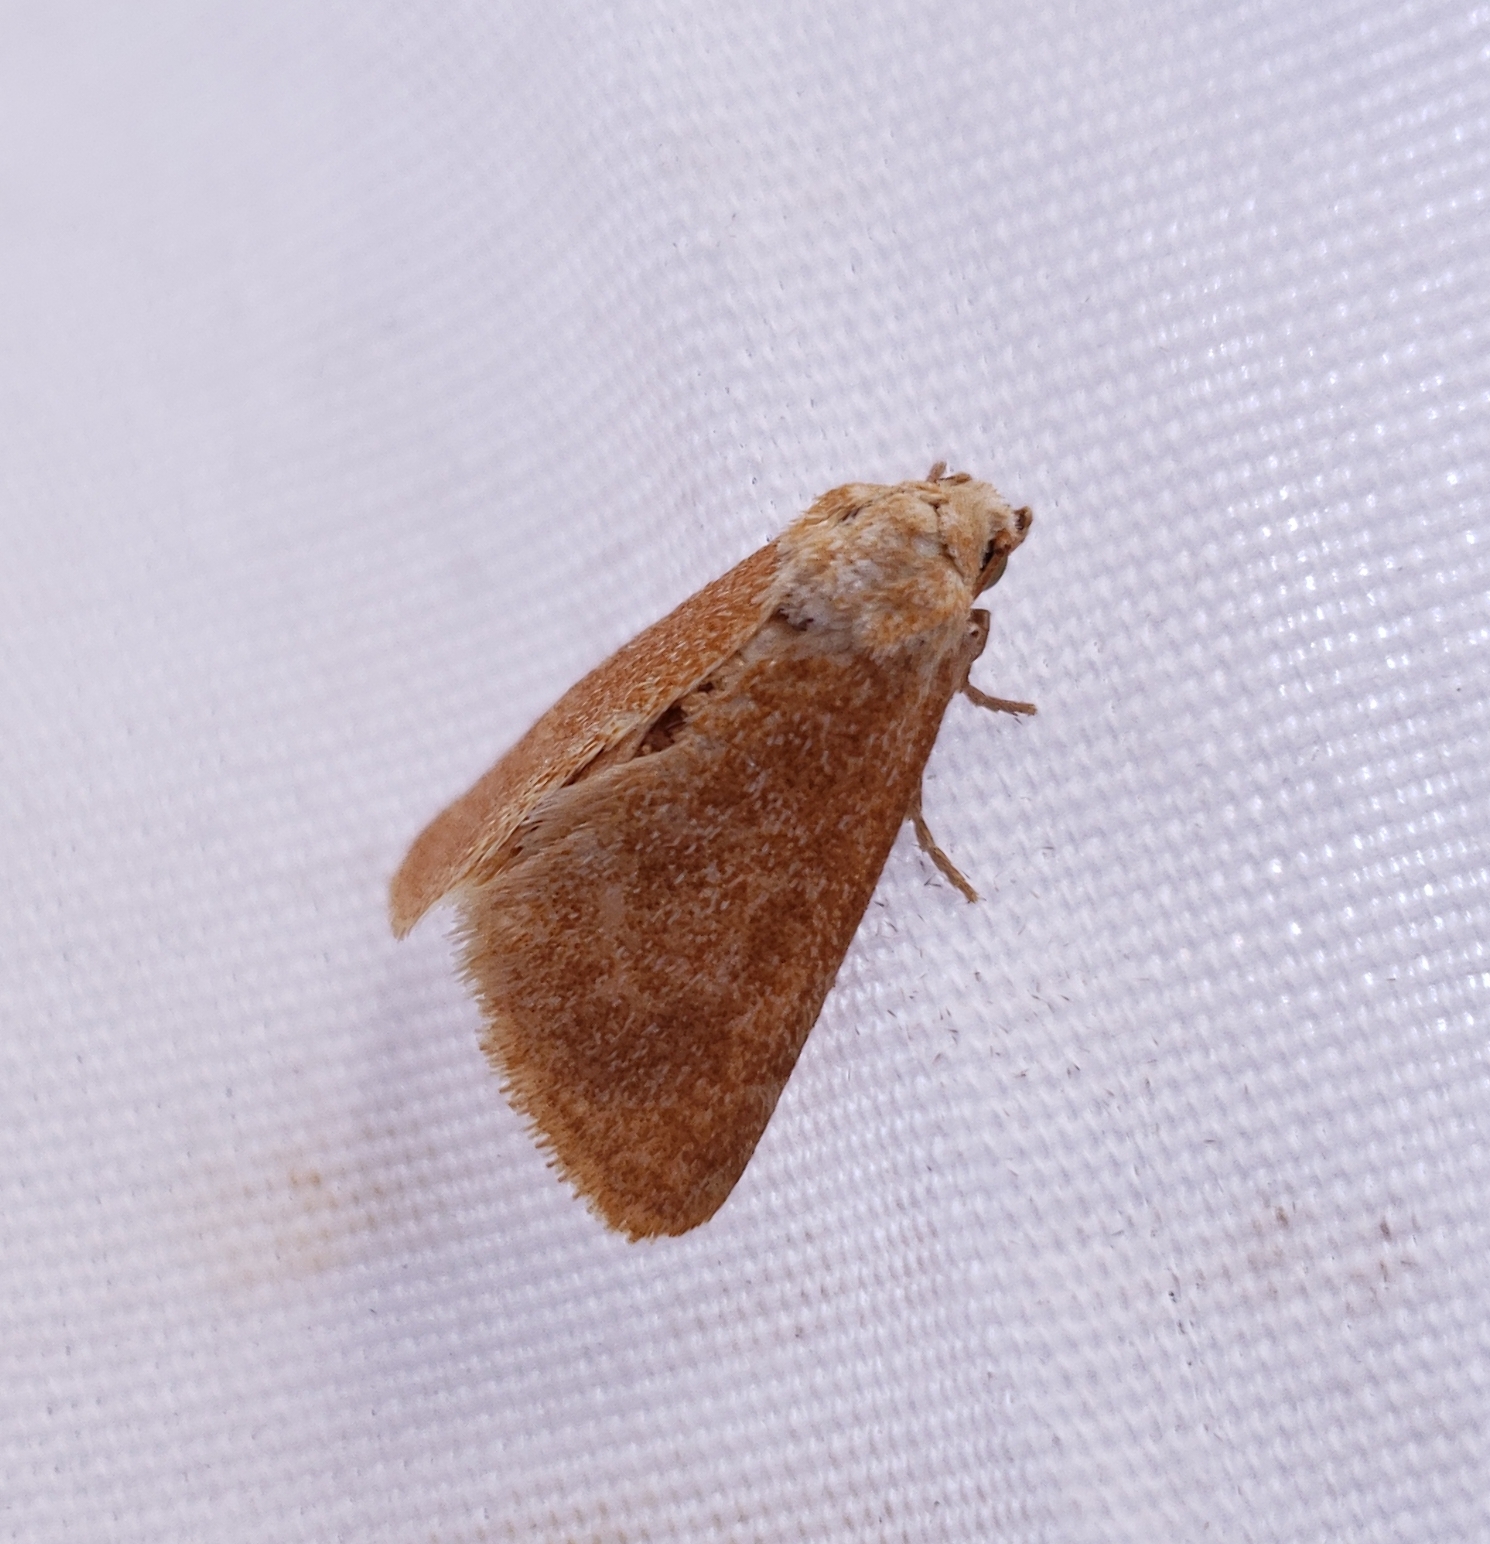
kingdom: Animalia
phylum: Arthropoda
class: Insecta
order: Lepidoptera
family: Noctuidae
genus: Azenia
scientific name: Azenia templetonae
